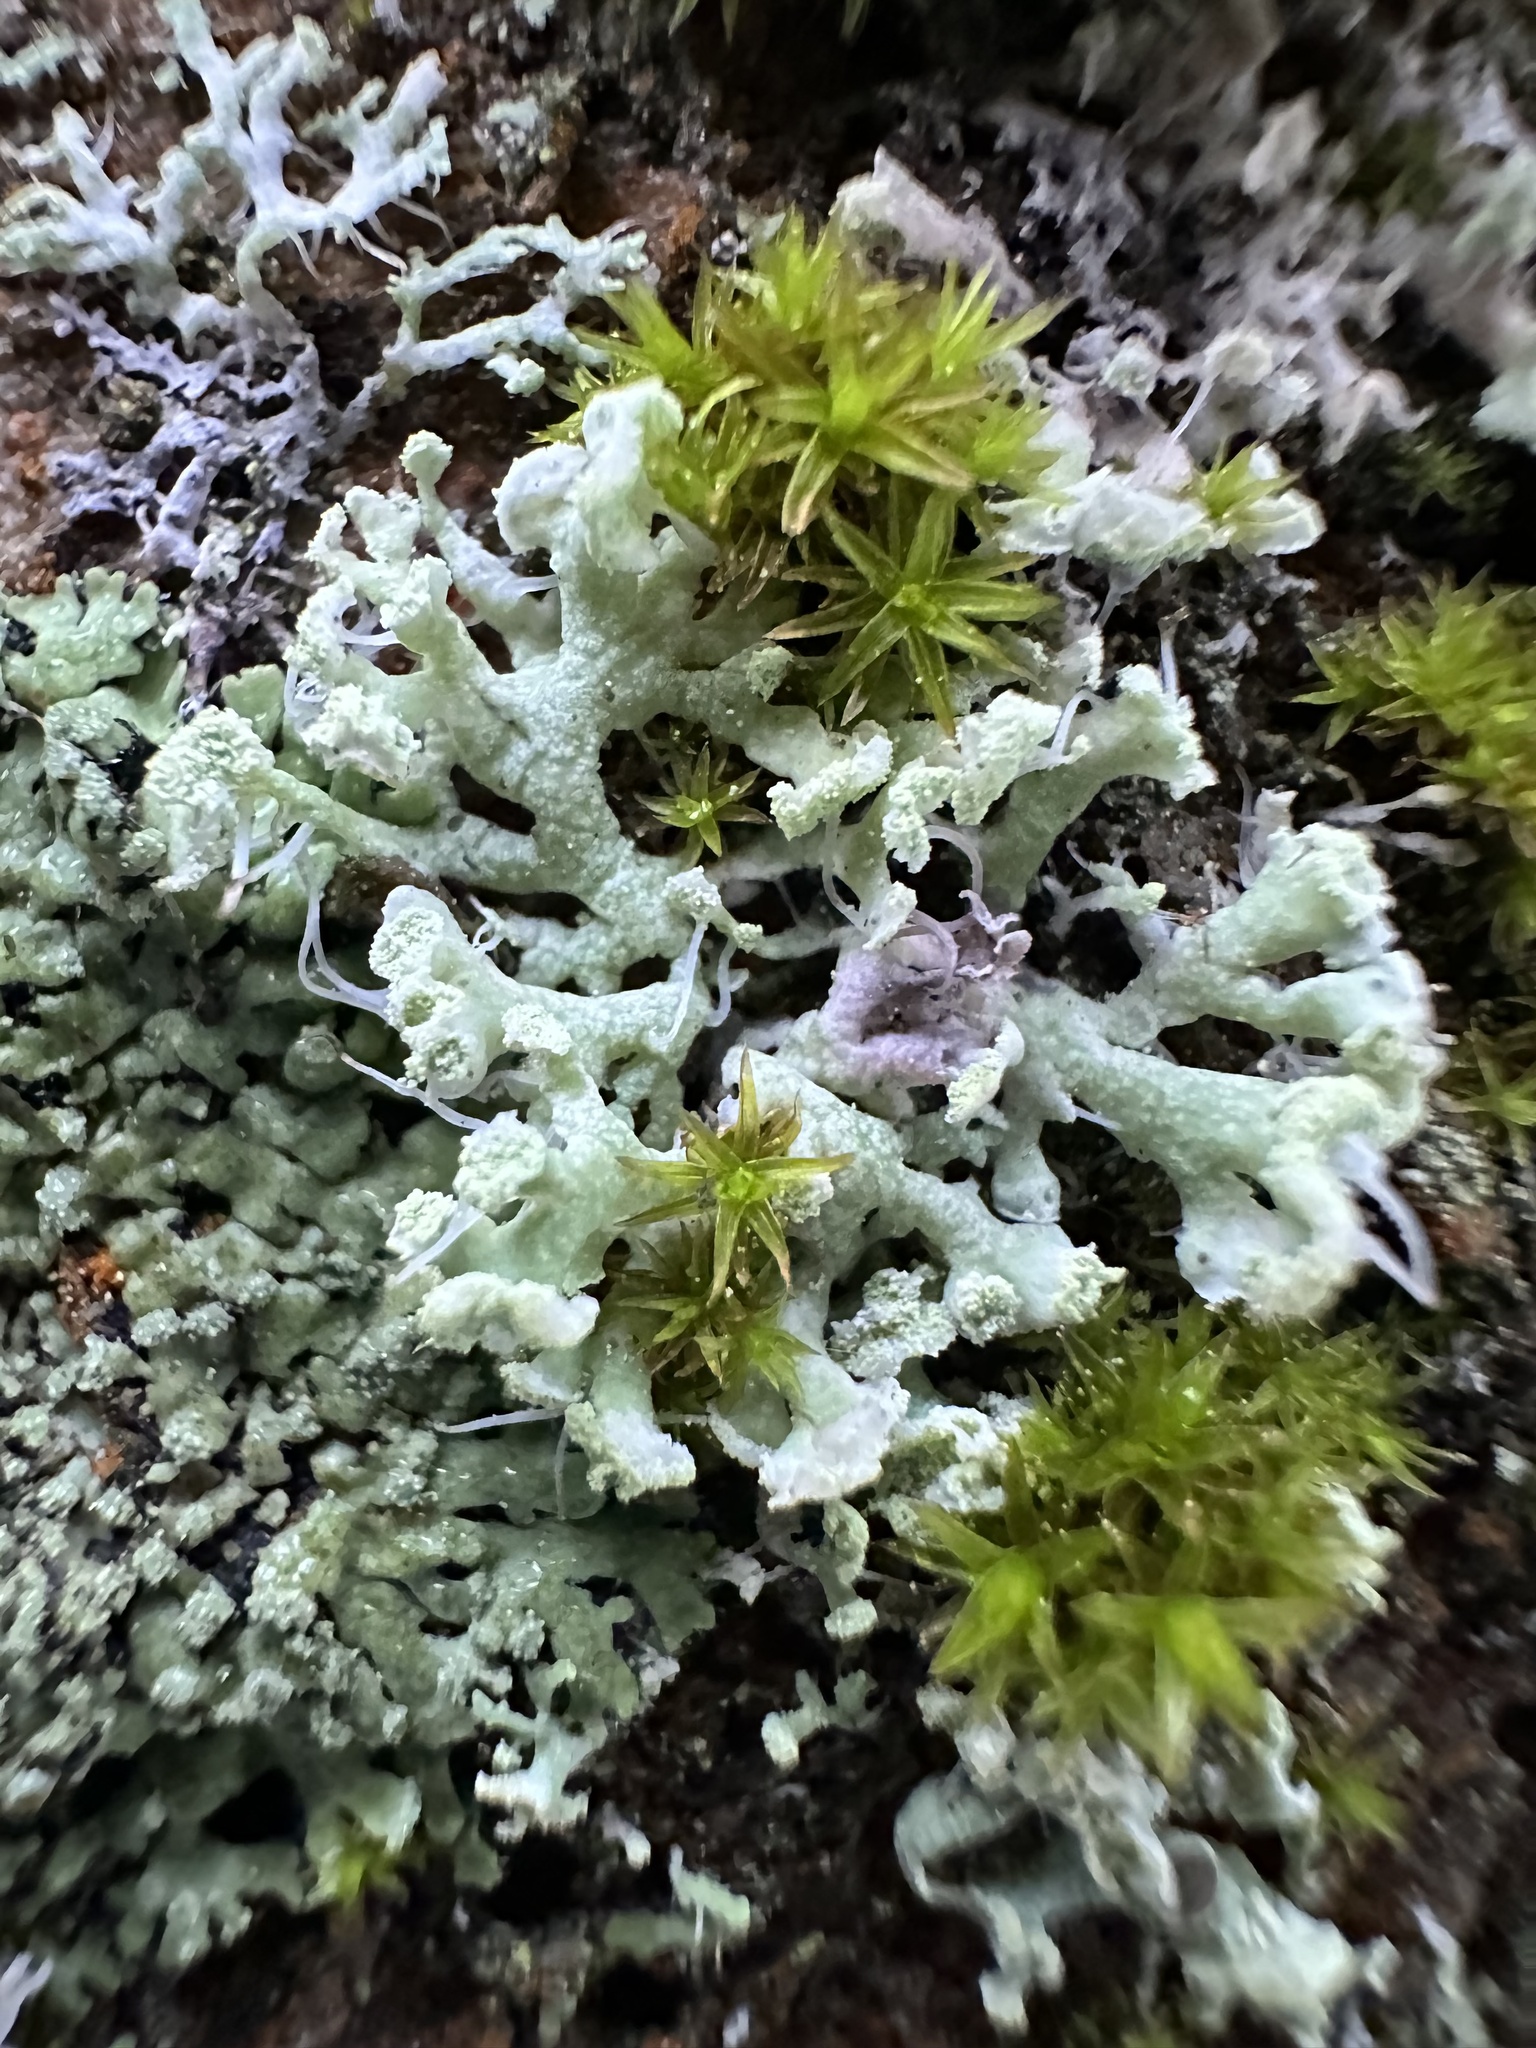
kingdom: Fungi
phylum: Ascomycota
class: Lecanoromycetes
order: Caliciales
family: Physciaceae
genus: Physcia
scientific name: Physcia tenella
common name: Fringed rosette lichen
